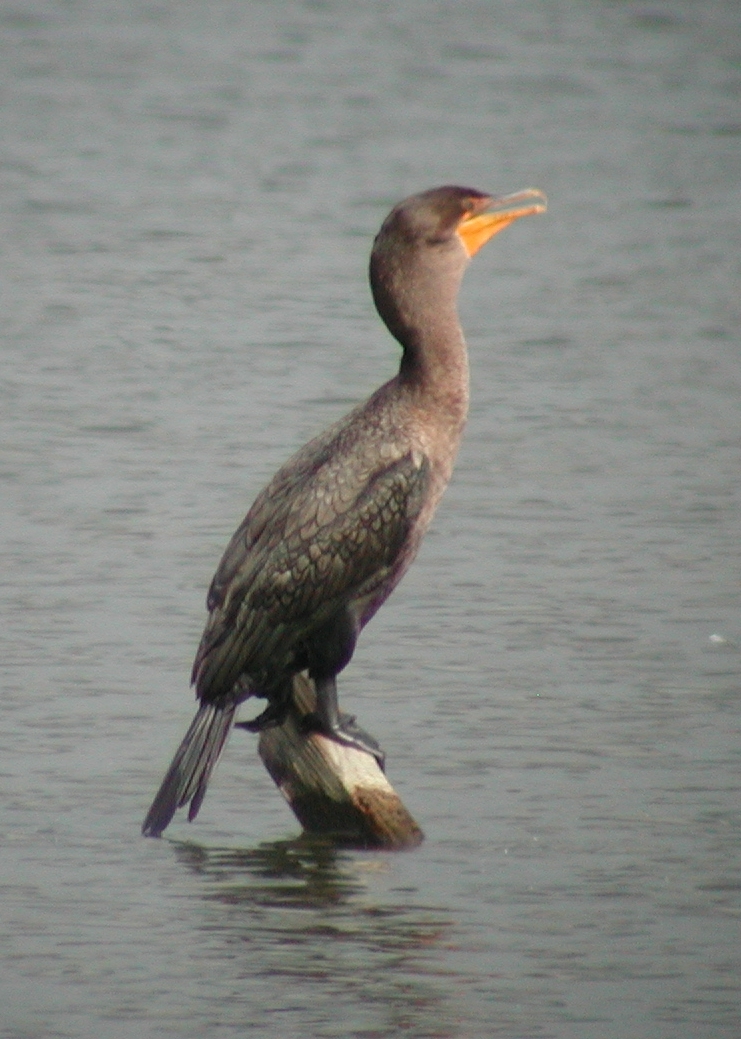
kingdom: Animalia
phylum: Chordata
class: Aves
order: Suliformes
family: Phalacrocoracidae
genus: Phalacrocorax
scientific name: Phalacrocorax auritus
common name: Double-crested cormorant
